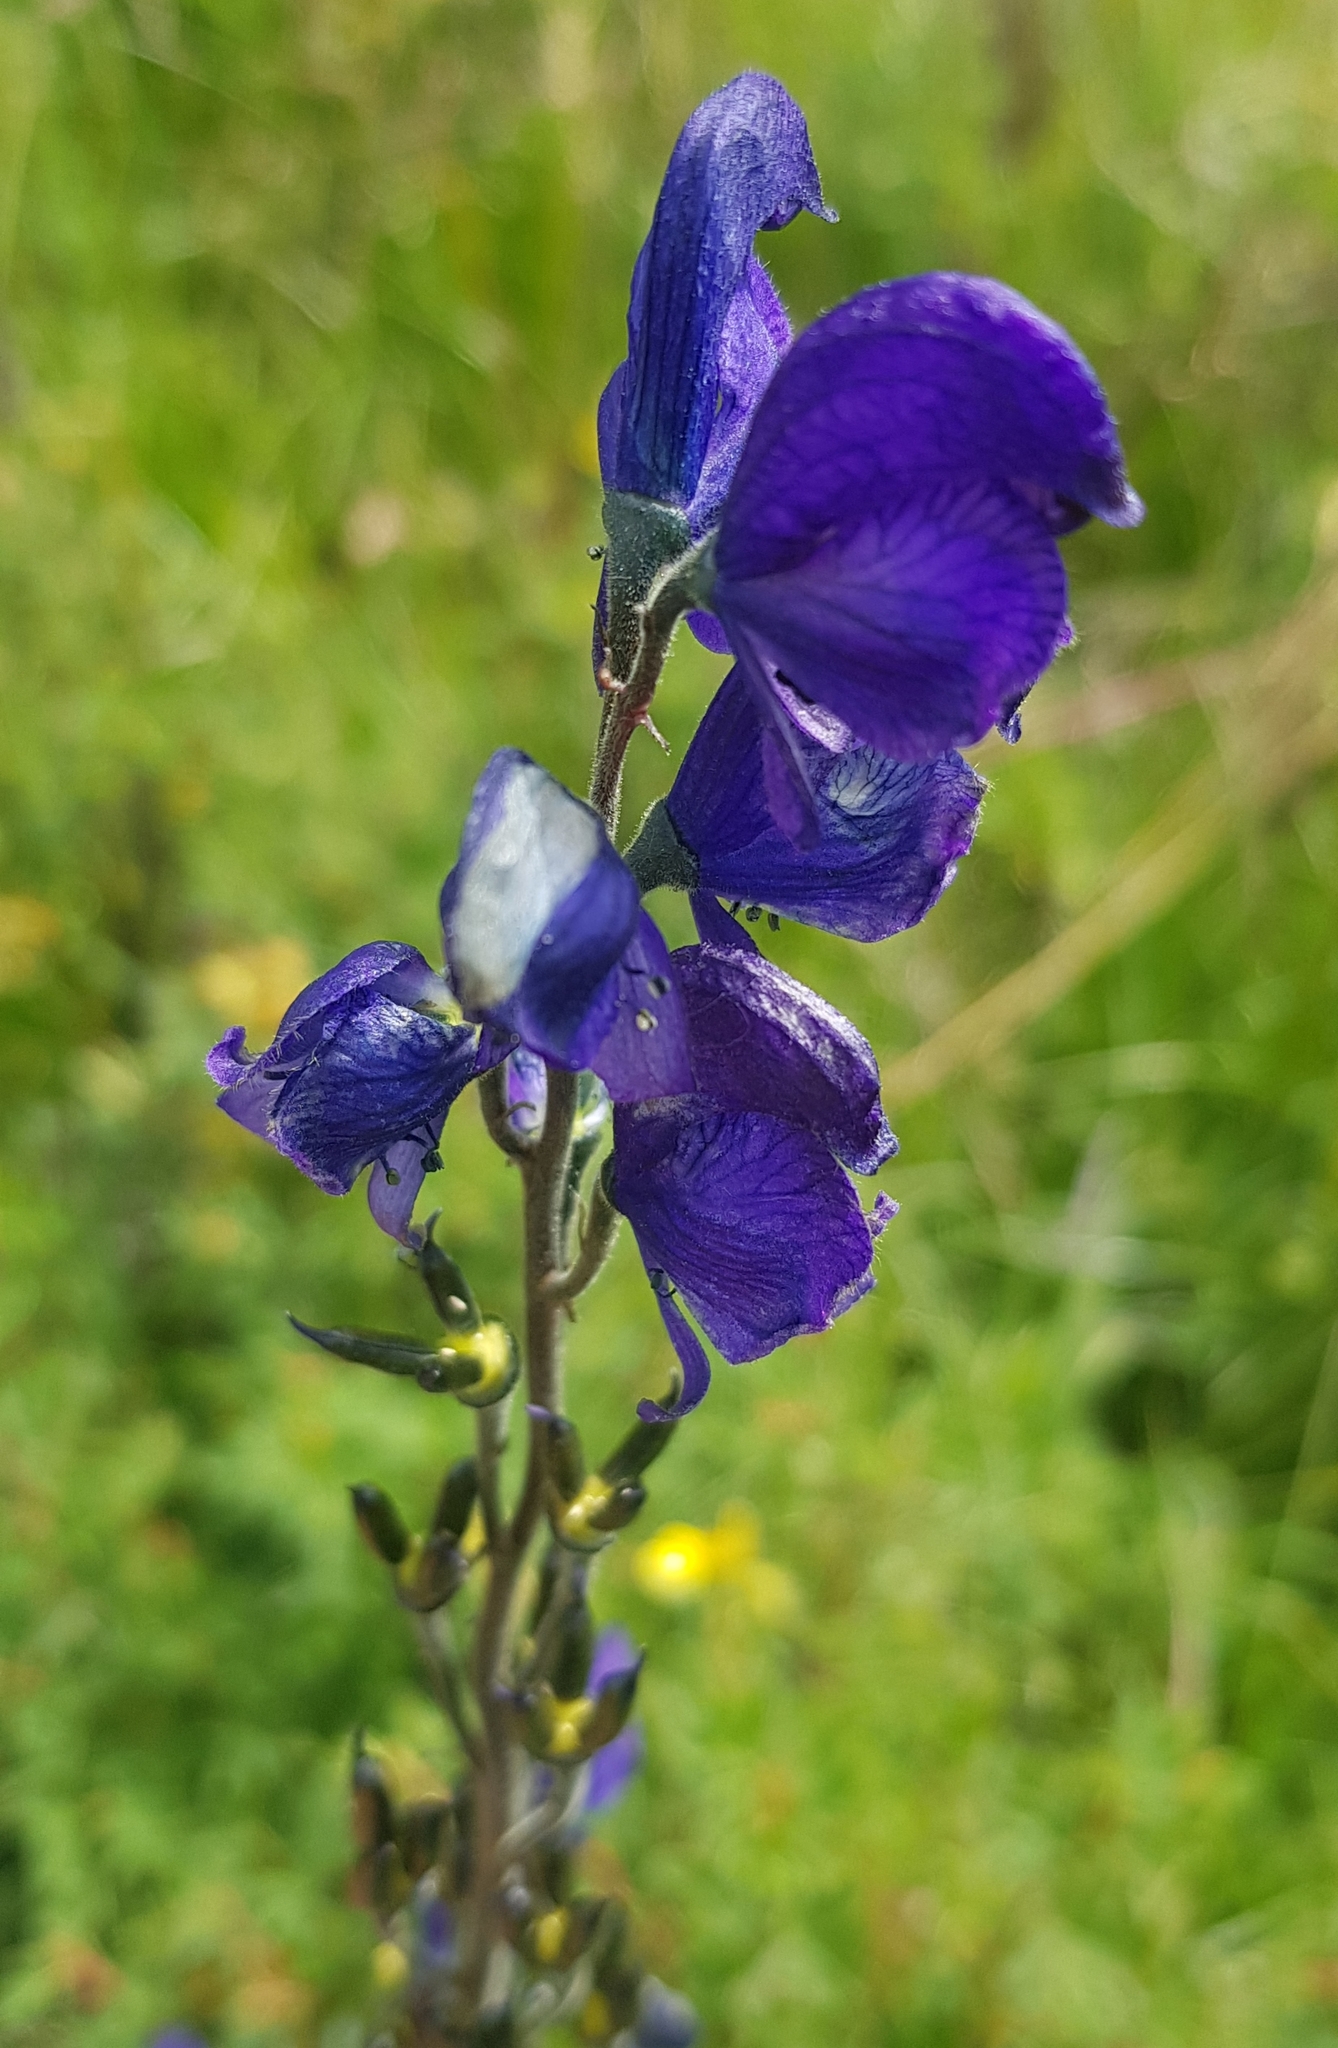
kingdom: Plantae
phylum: Tracheophyta
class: Magnoliopsida
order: Ranunculales
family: Ranunculaceae
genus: Aconitum
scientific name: Aconitum baicalense
